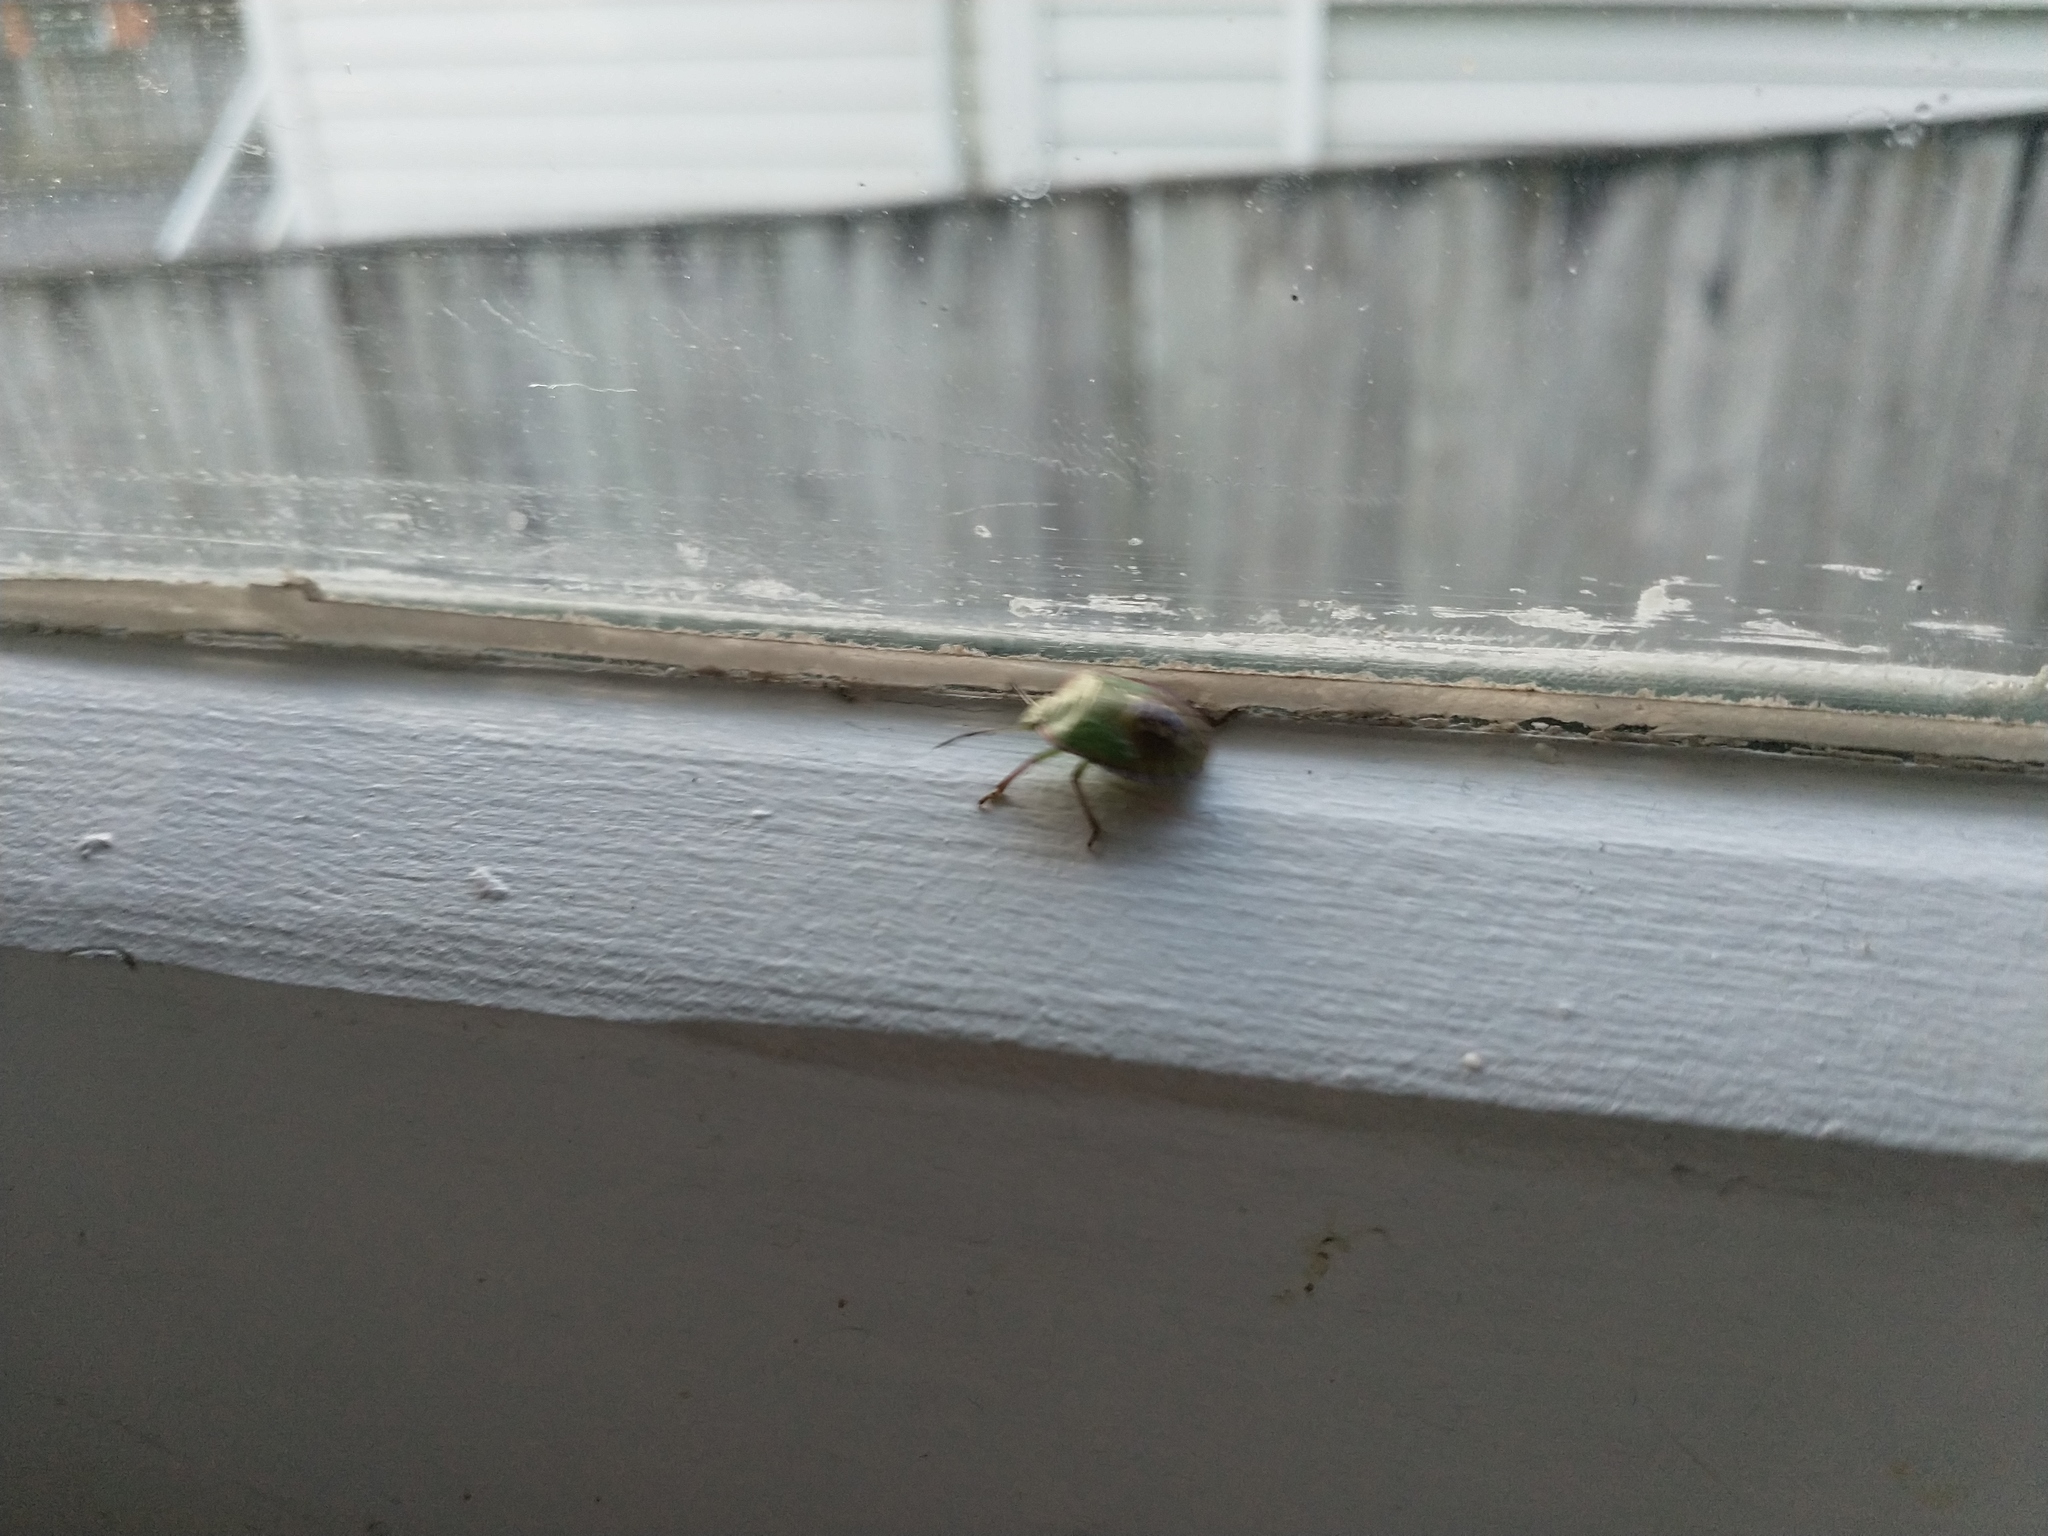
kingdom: Animalia
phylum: Arthropoda
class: Insecta
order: Hemiptera
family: Pentatomidae
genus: Nezara
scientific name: Nezara viridula
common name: Southern green stink bug
